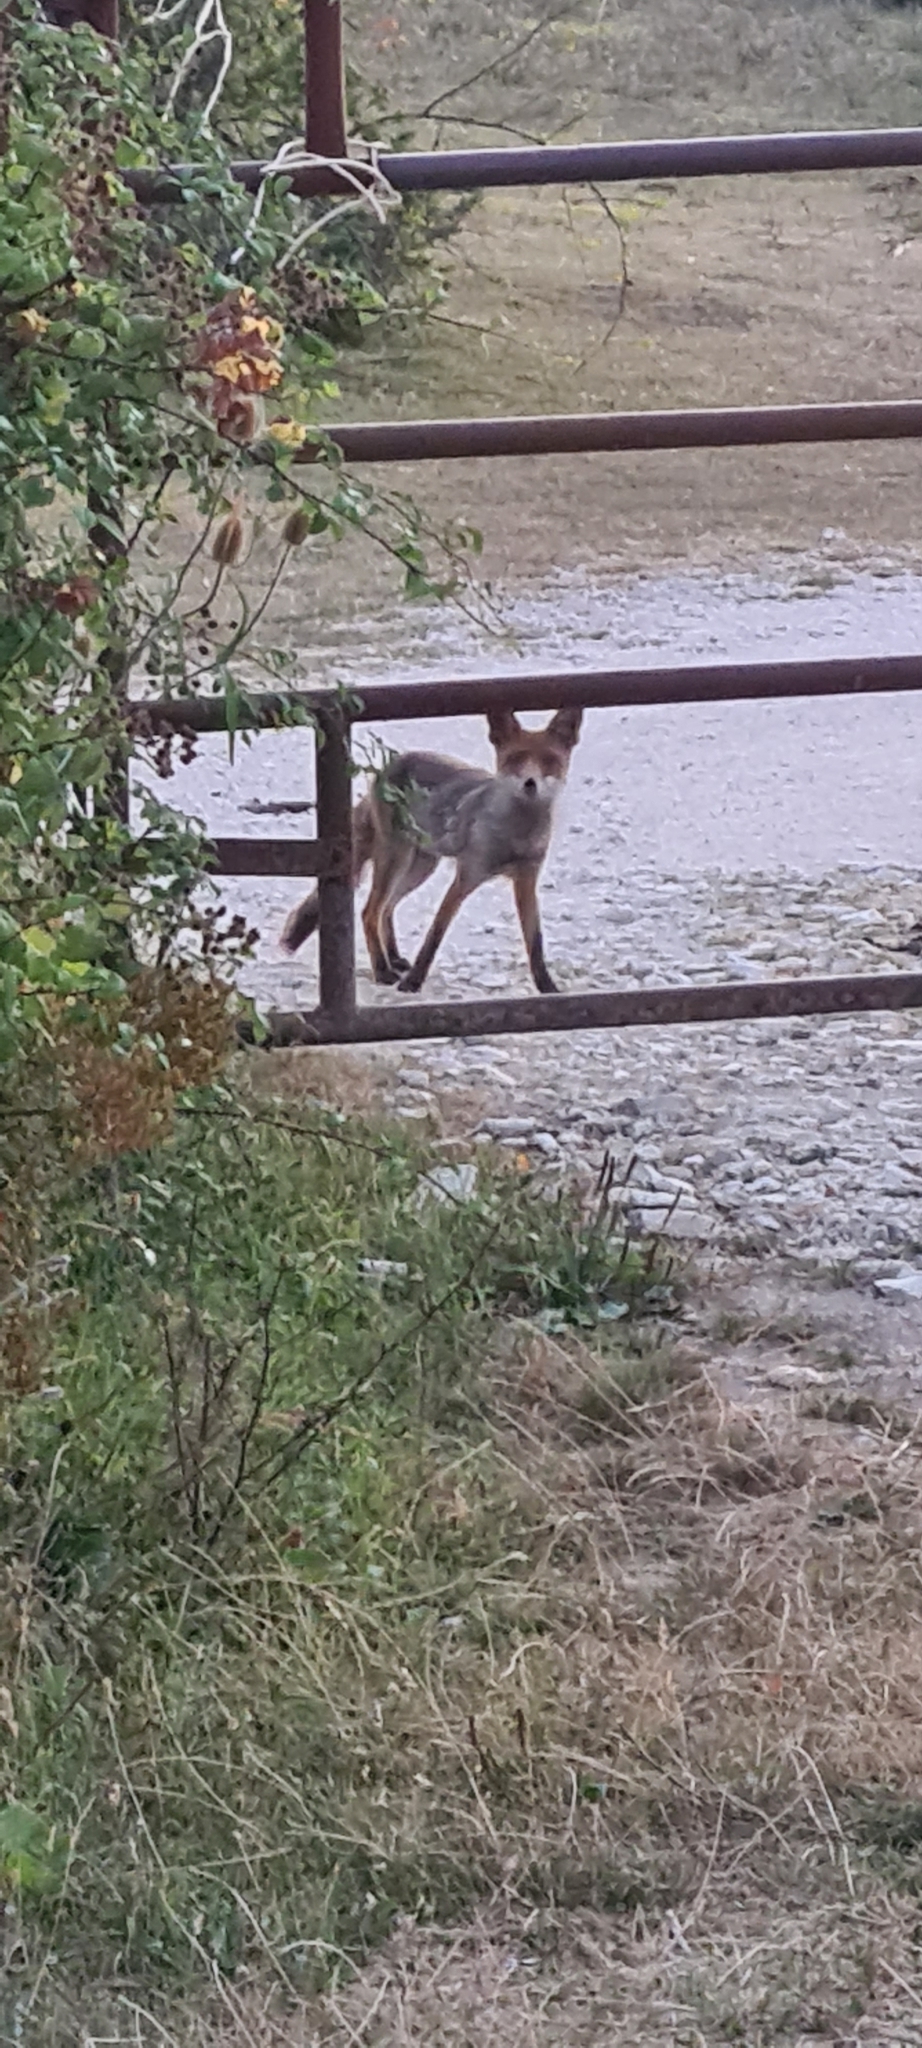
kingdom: Animalia
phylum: Chordata
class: Mammalia
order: Carnivora
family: Canidae
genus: Vulpes
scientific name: Vulpes vulpes
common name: Red fox
